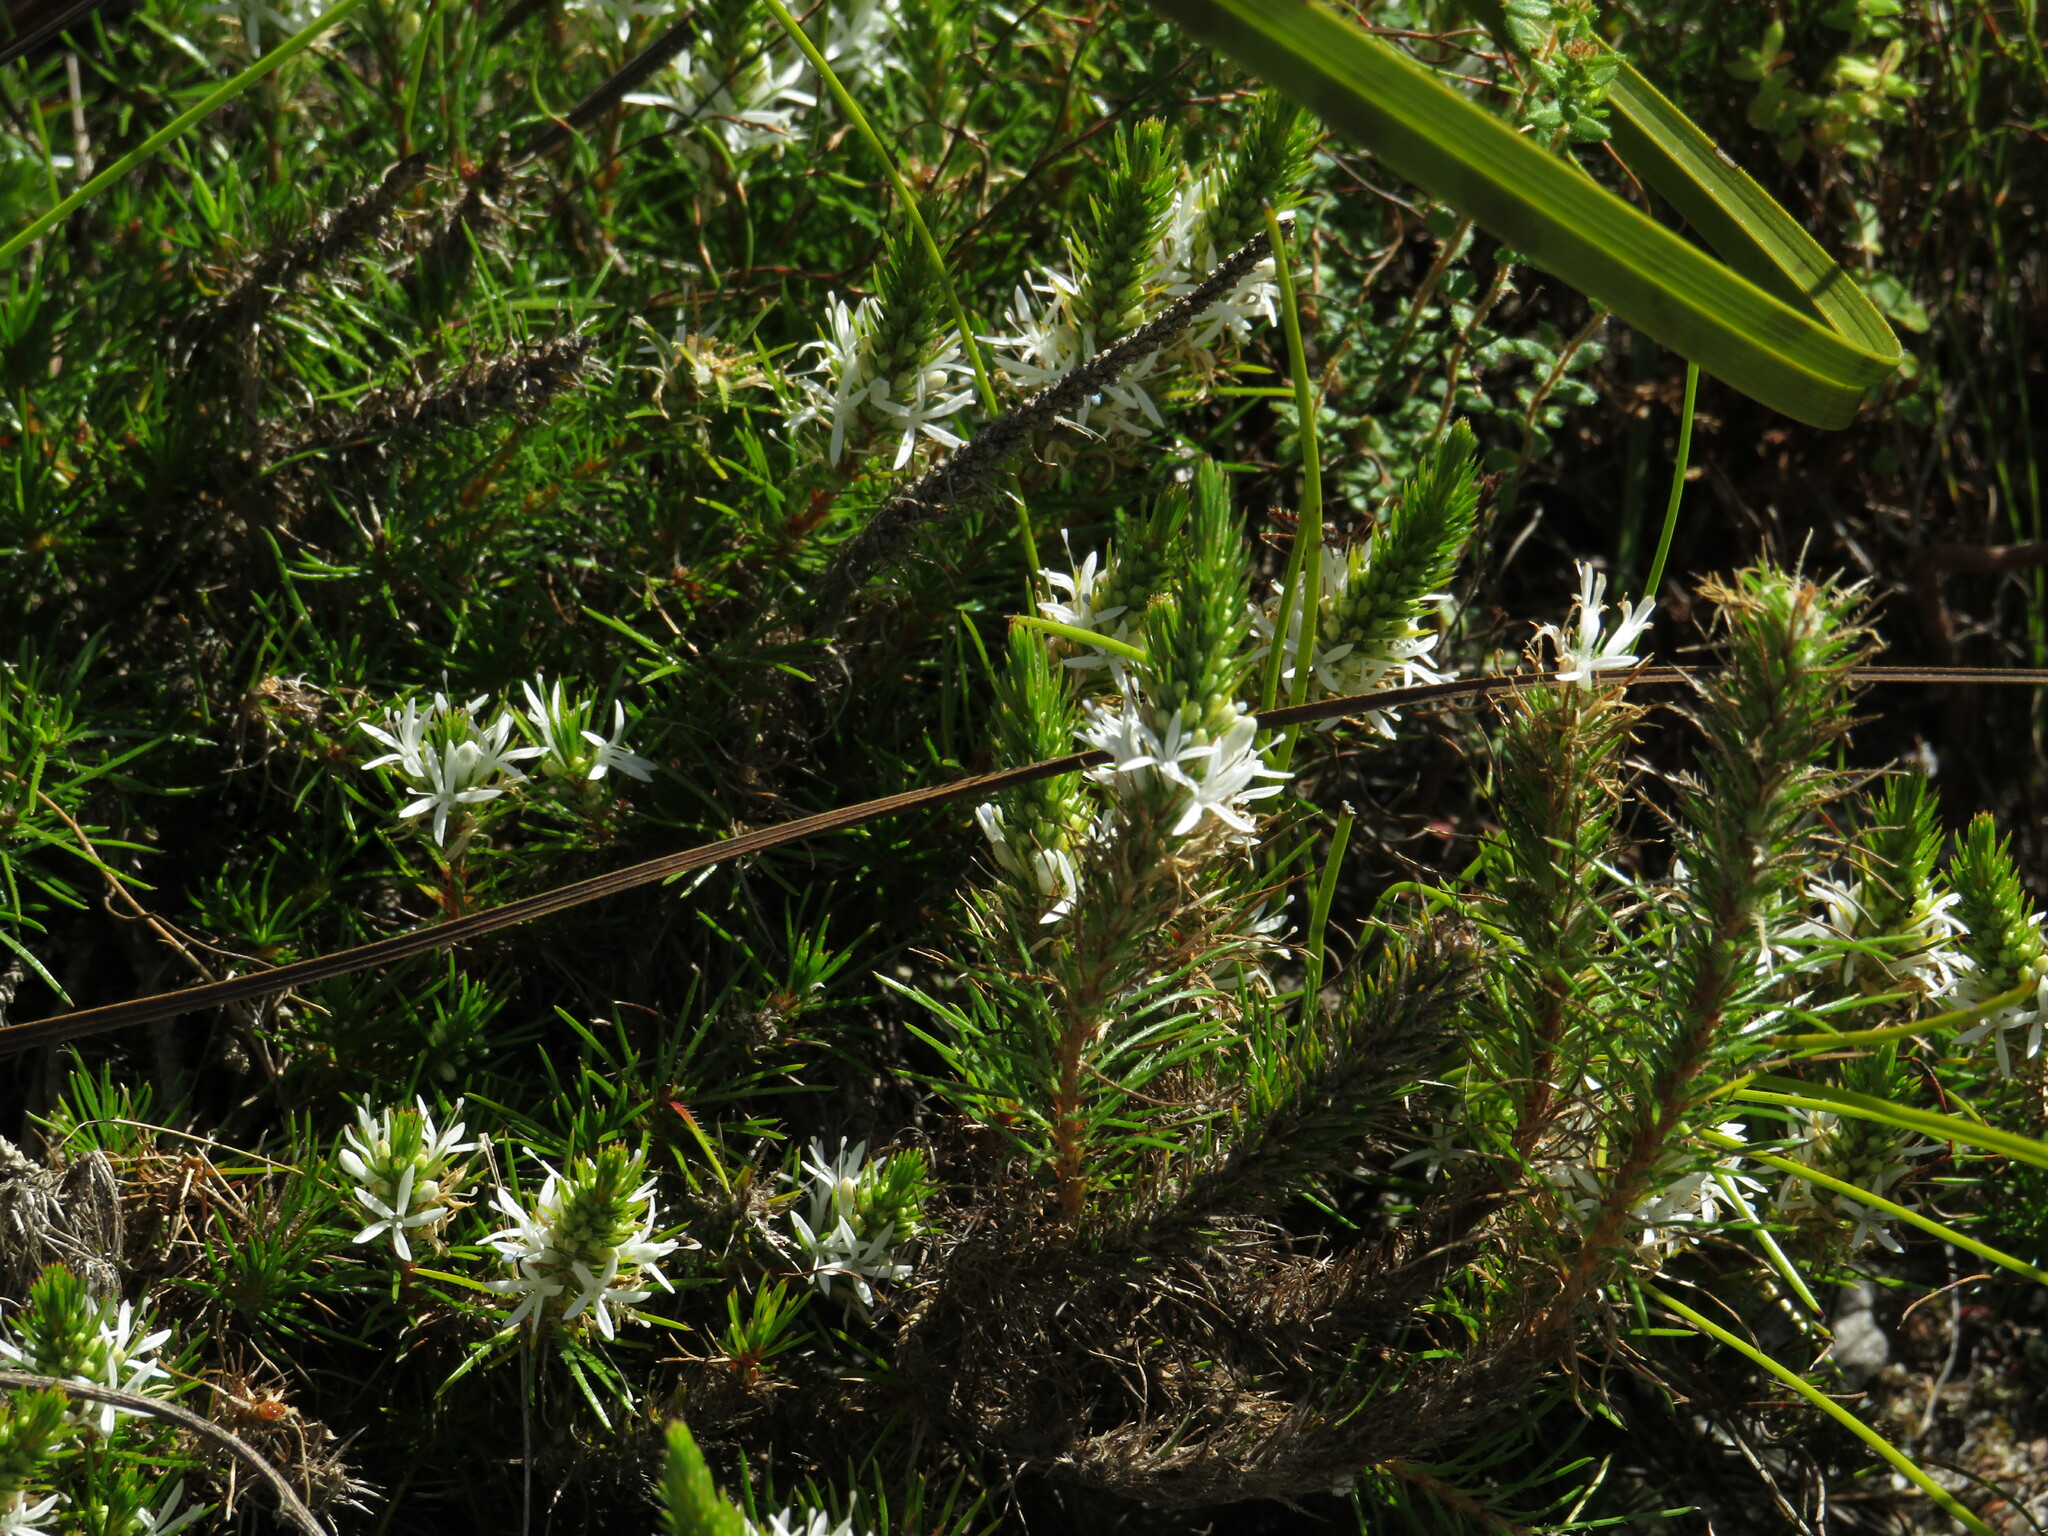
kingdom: Plantae
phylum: Tracheophyta
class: Magnoliopsida
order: Asterales
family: Campanulaceae
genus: Merciera
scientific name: Merciera leptoloba
